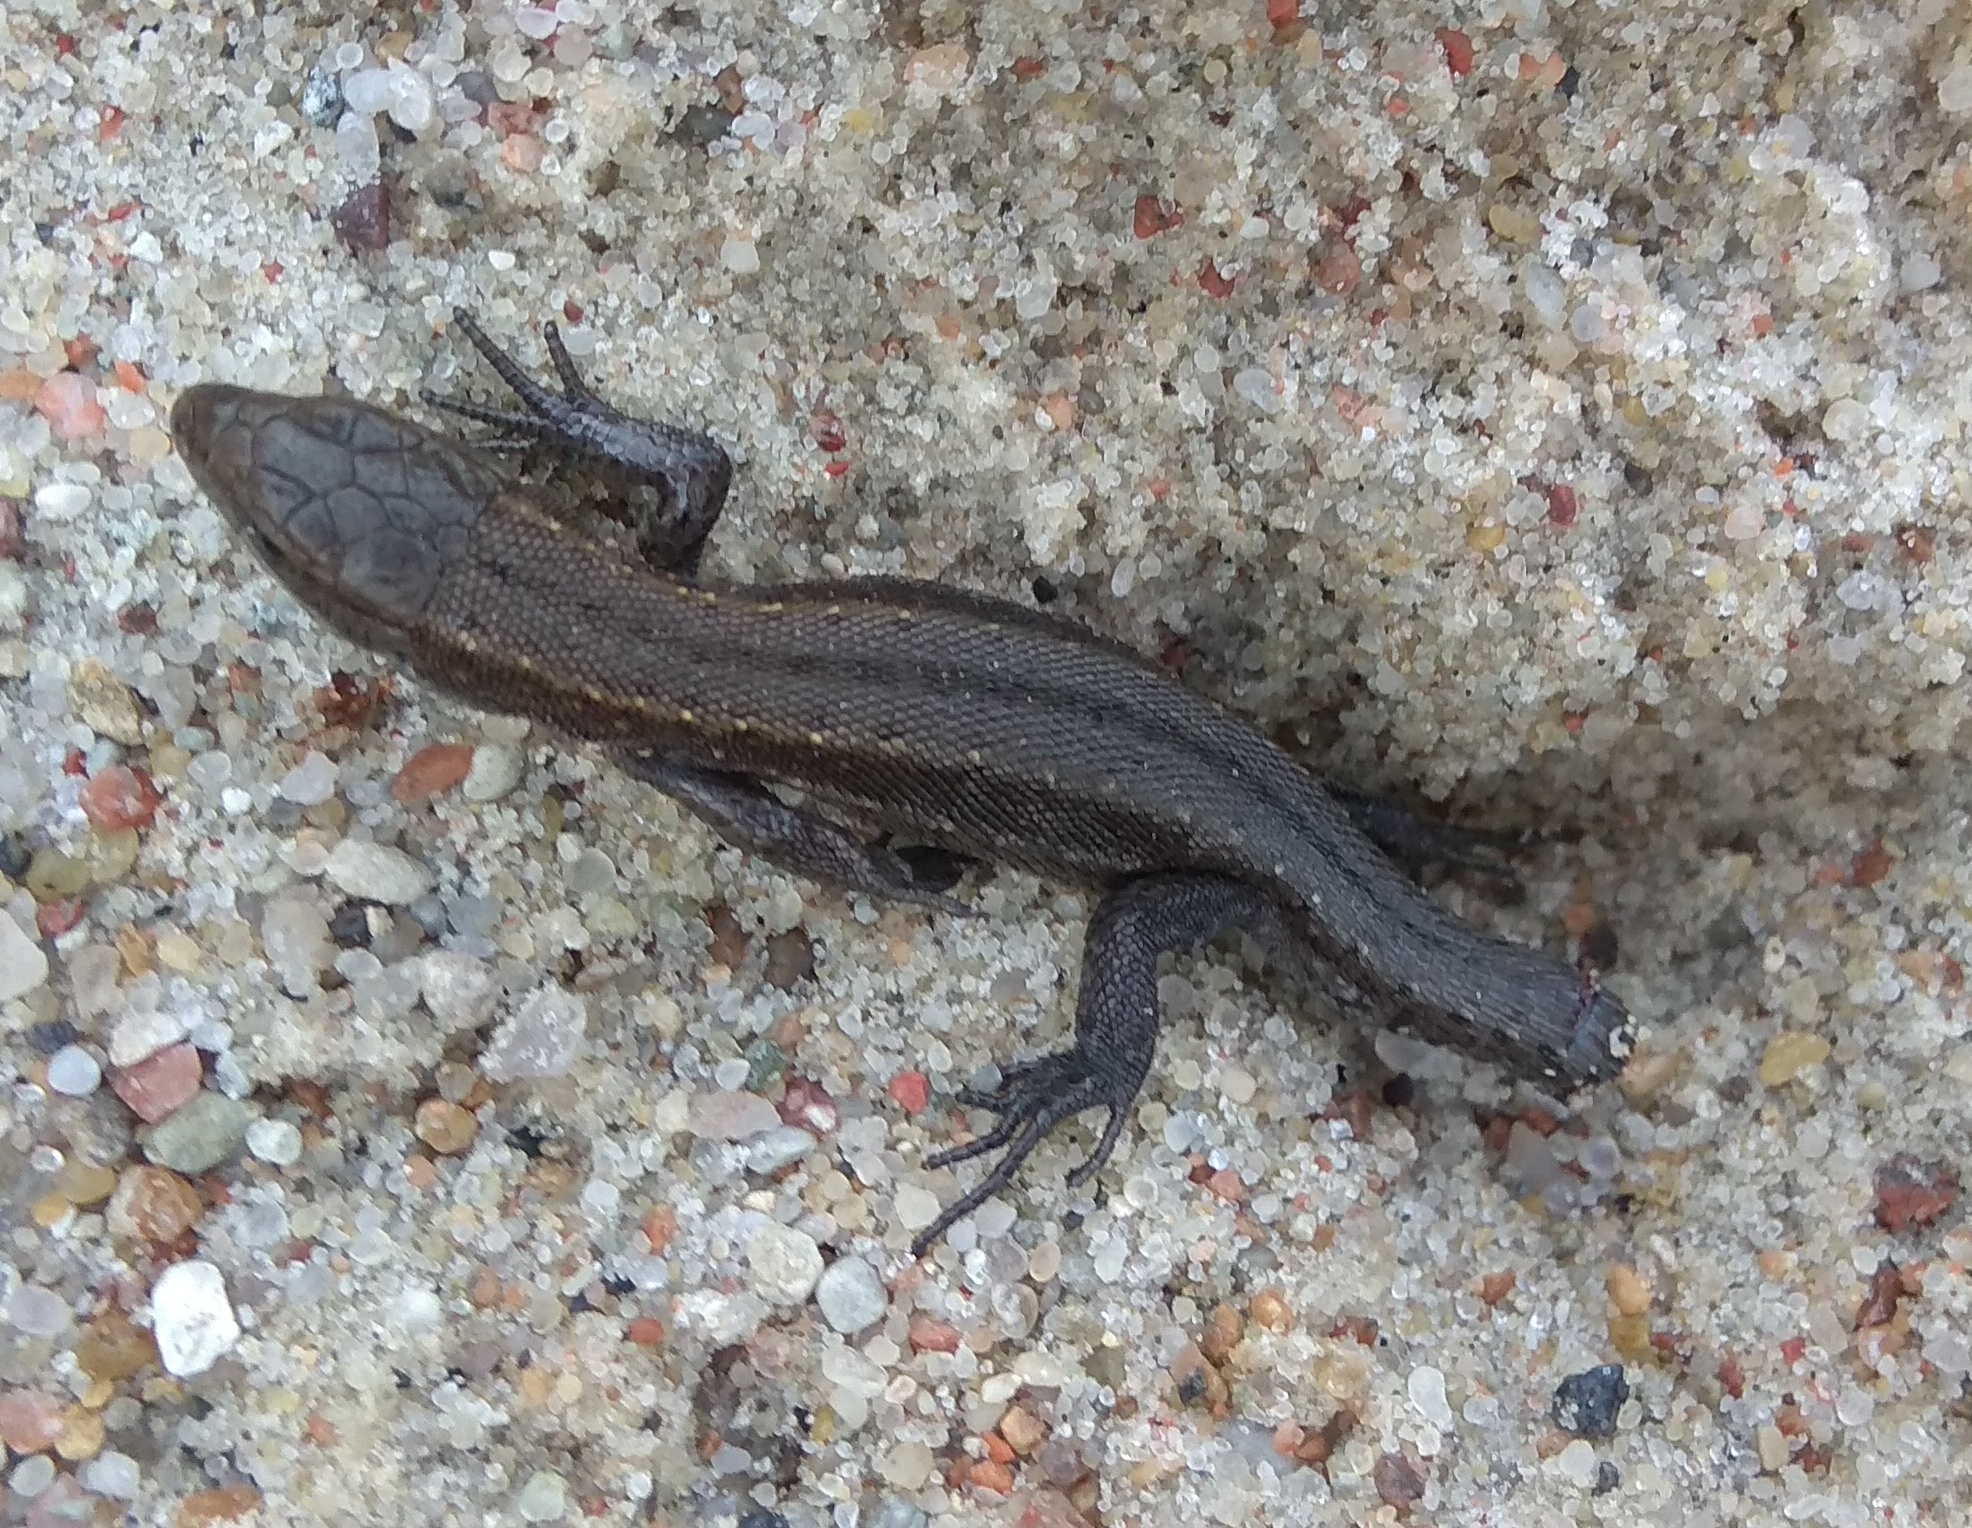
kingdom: Animalia
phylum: Chordata
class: Squamata
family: Lacertidae
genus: Zootoca
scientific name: Zootoca vivipara
